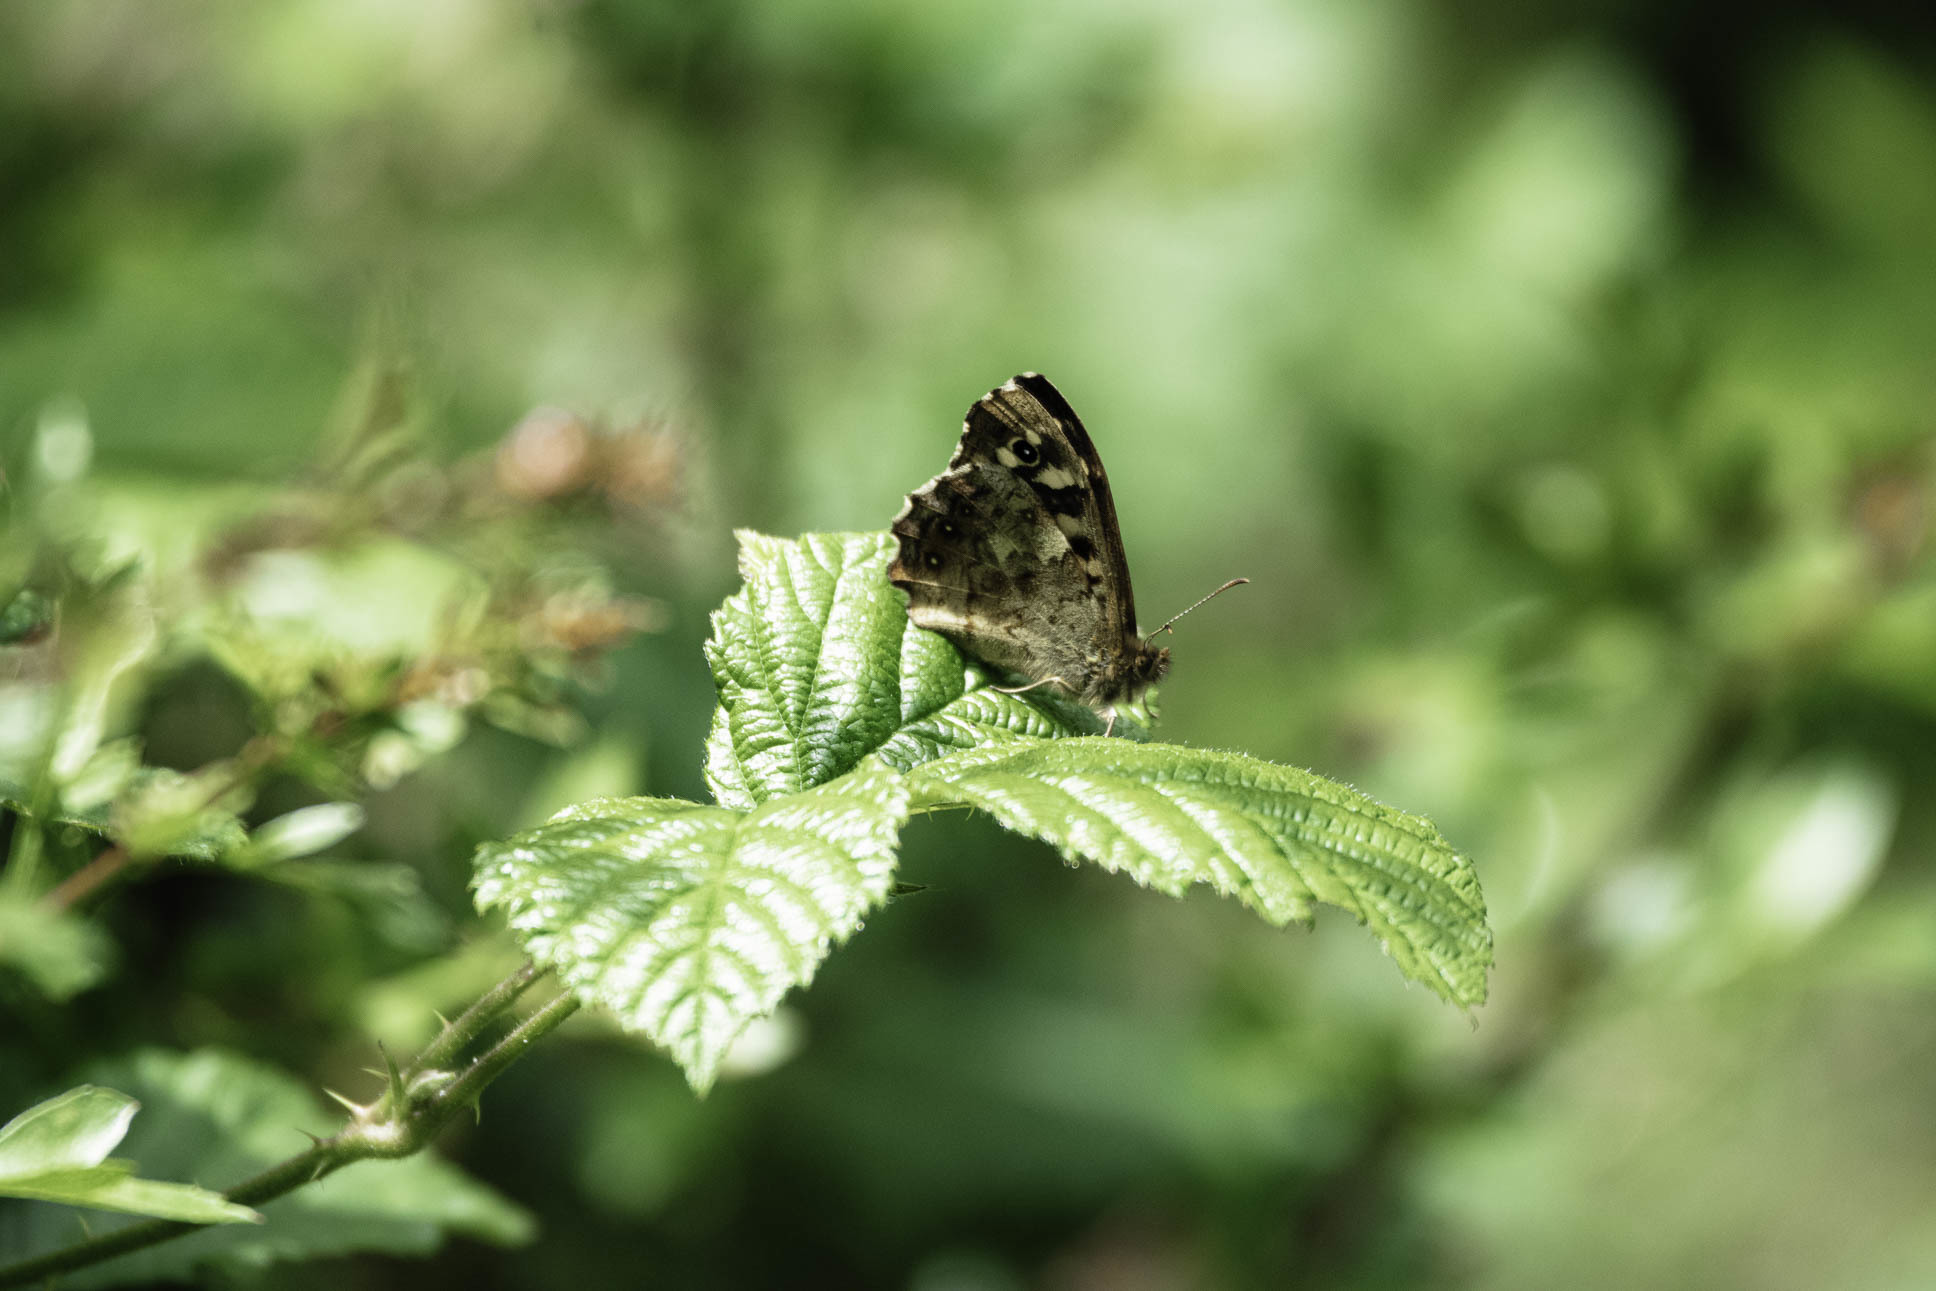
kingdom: Animalia
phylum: Arthropoda
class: Insecta
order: Lepidoptera
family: Nymphalidae
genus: Pararge
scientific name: Pararge aegeria
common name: Speckled wood
